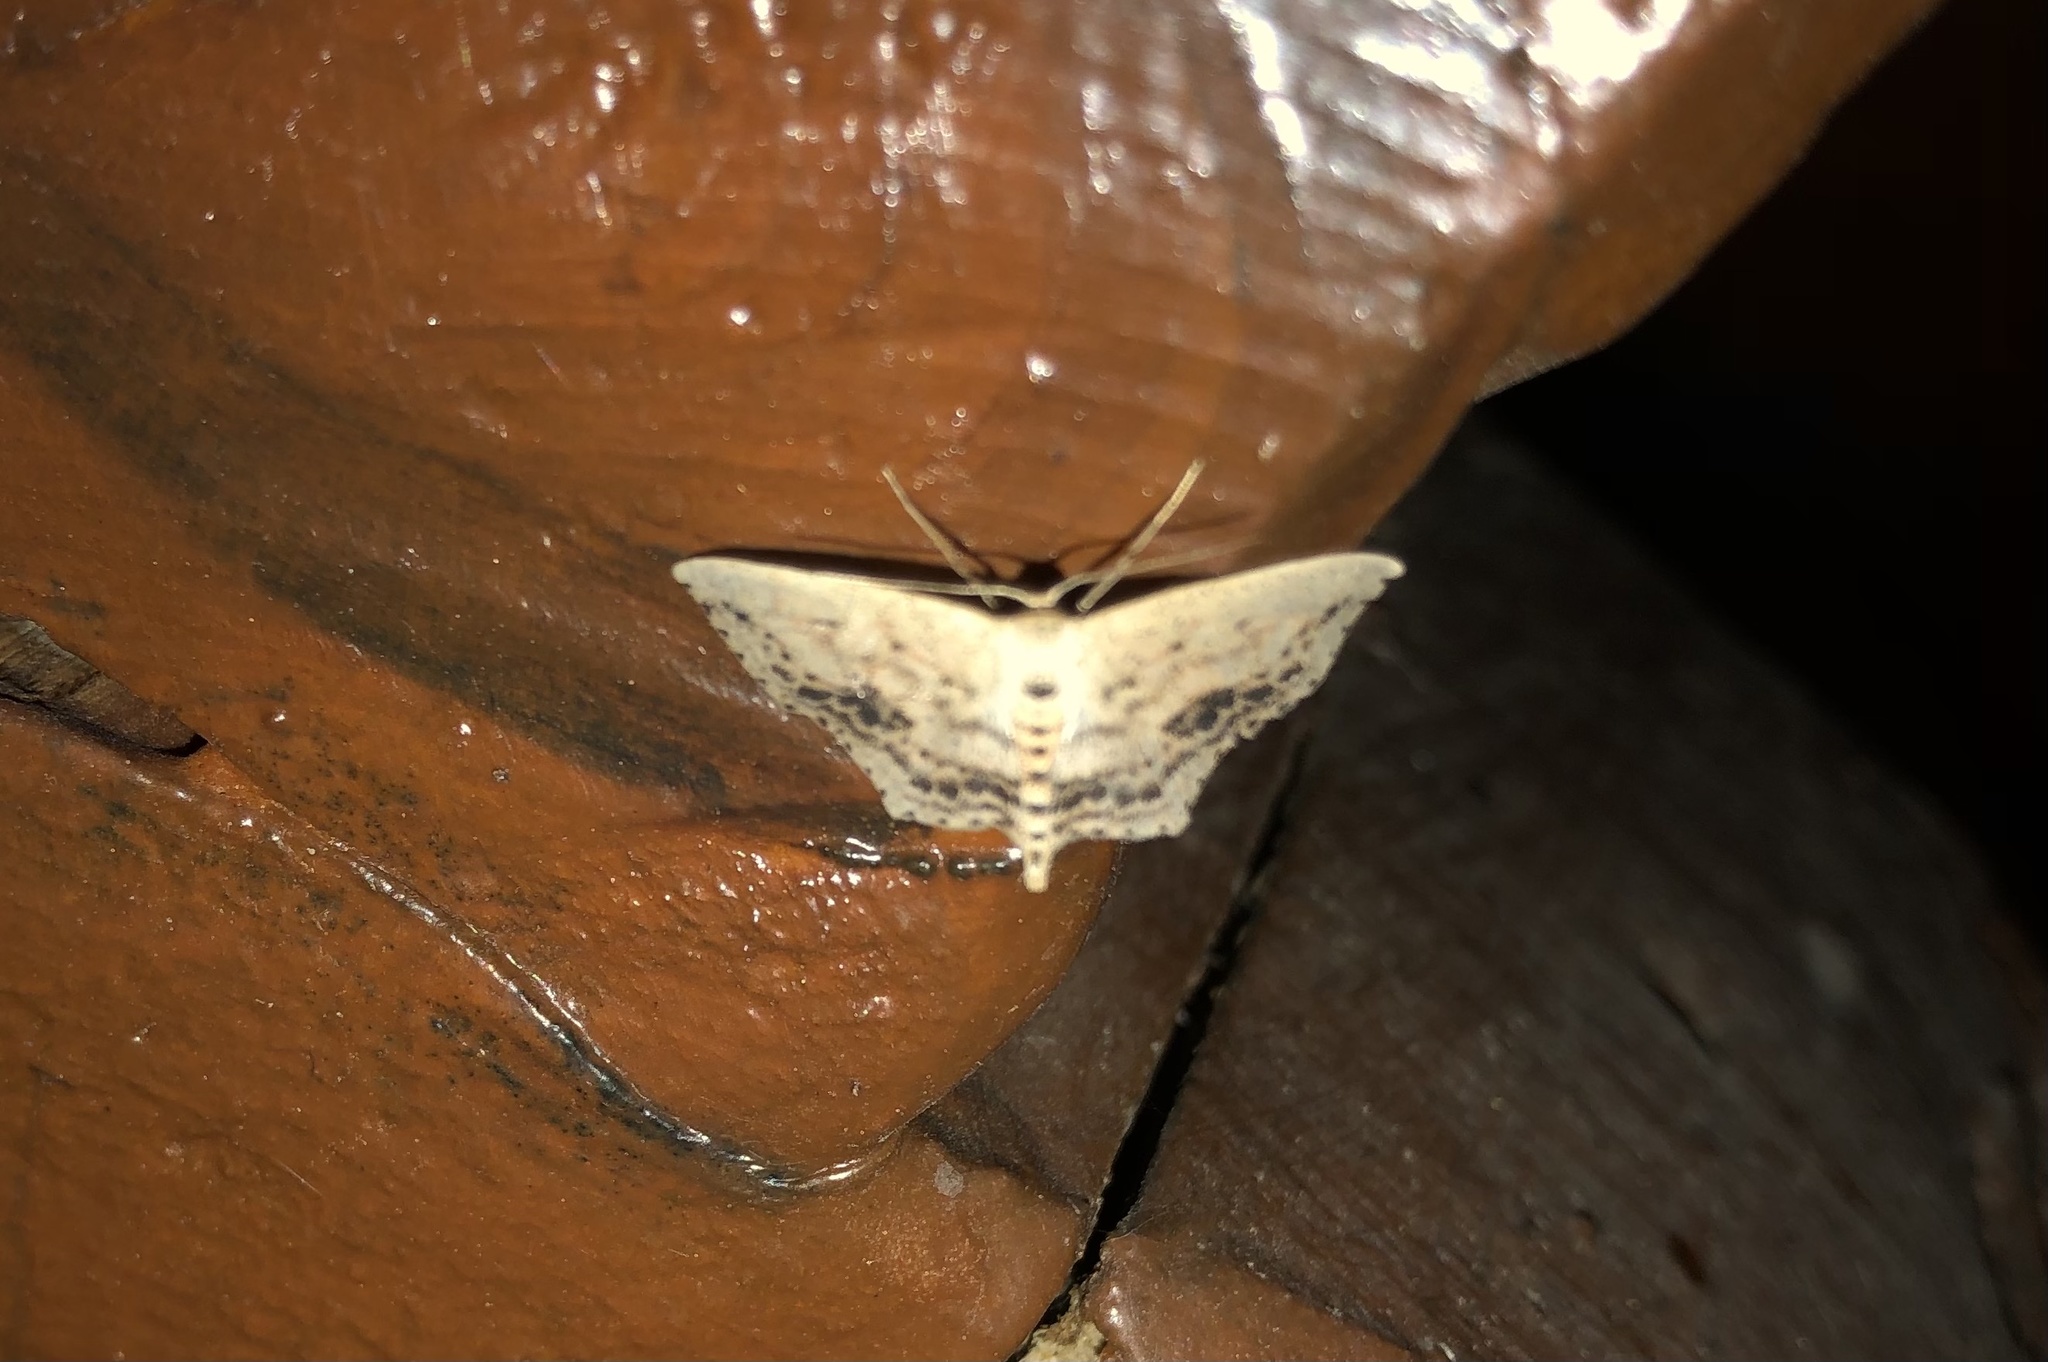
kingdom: Animalia
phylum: Arthropoda
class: Insecta
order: Lepidoptera
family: Geometridae
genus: Scopula
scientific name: Scopula cacuminaria
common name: Frosted tan wave
